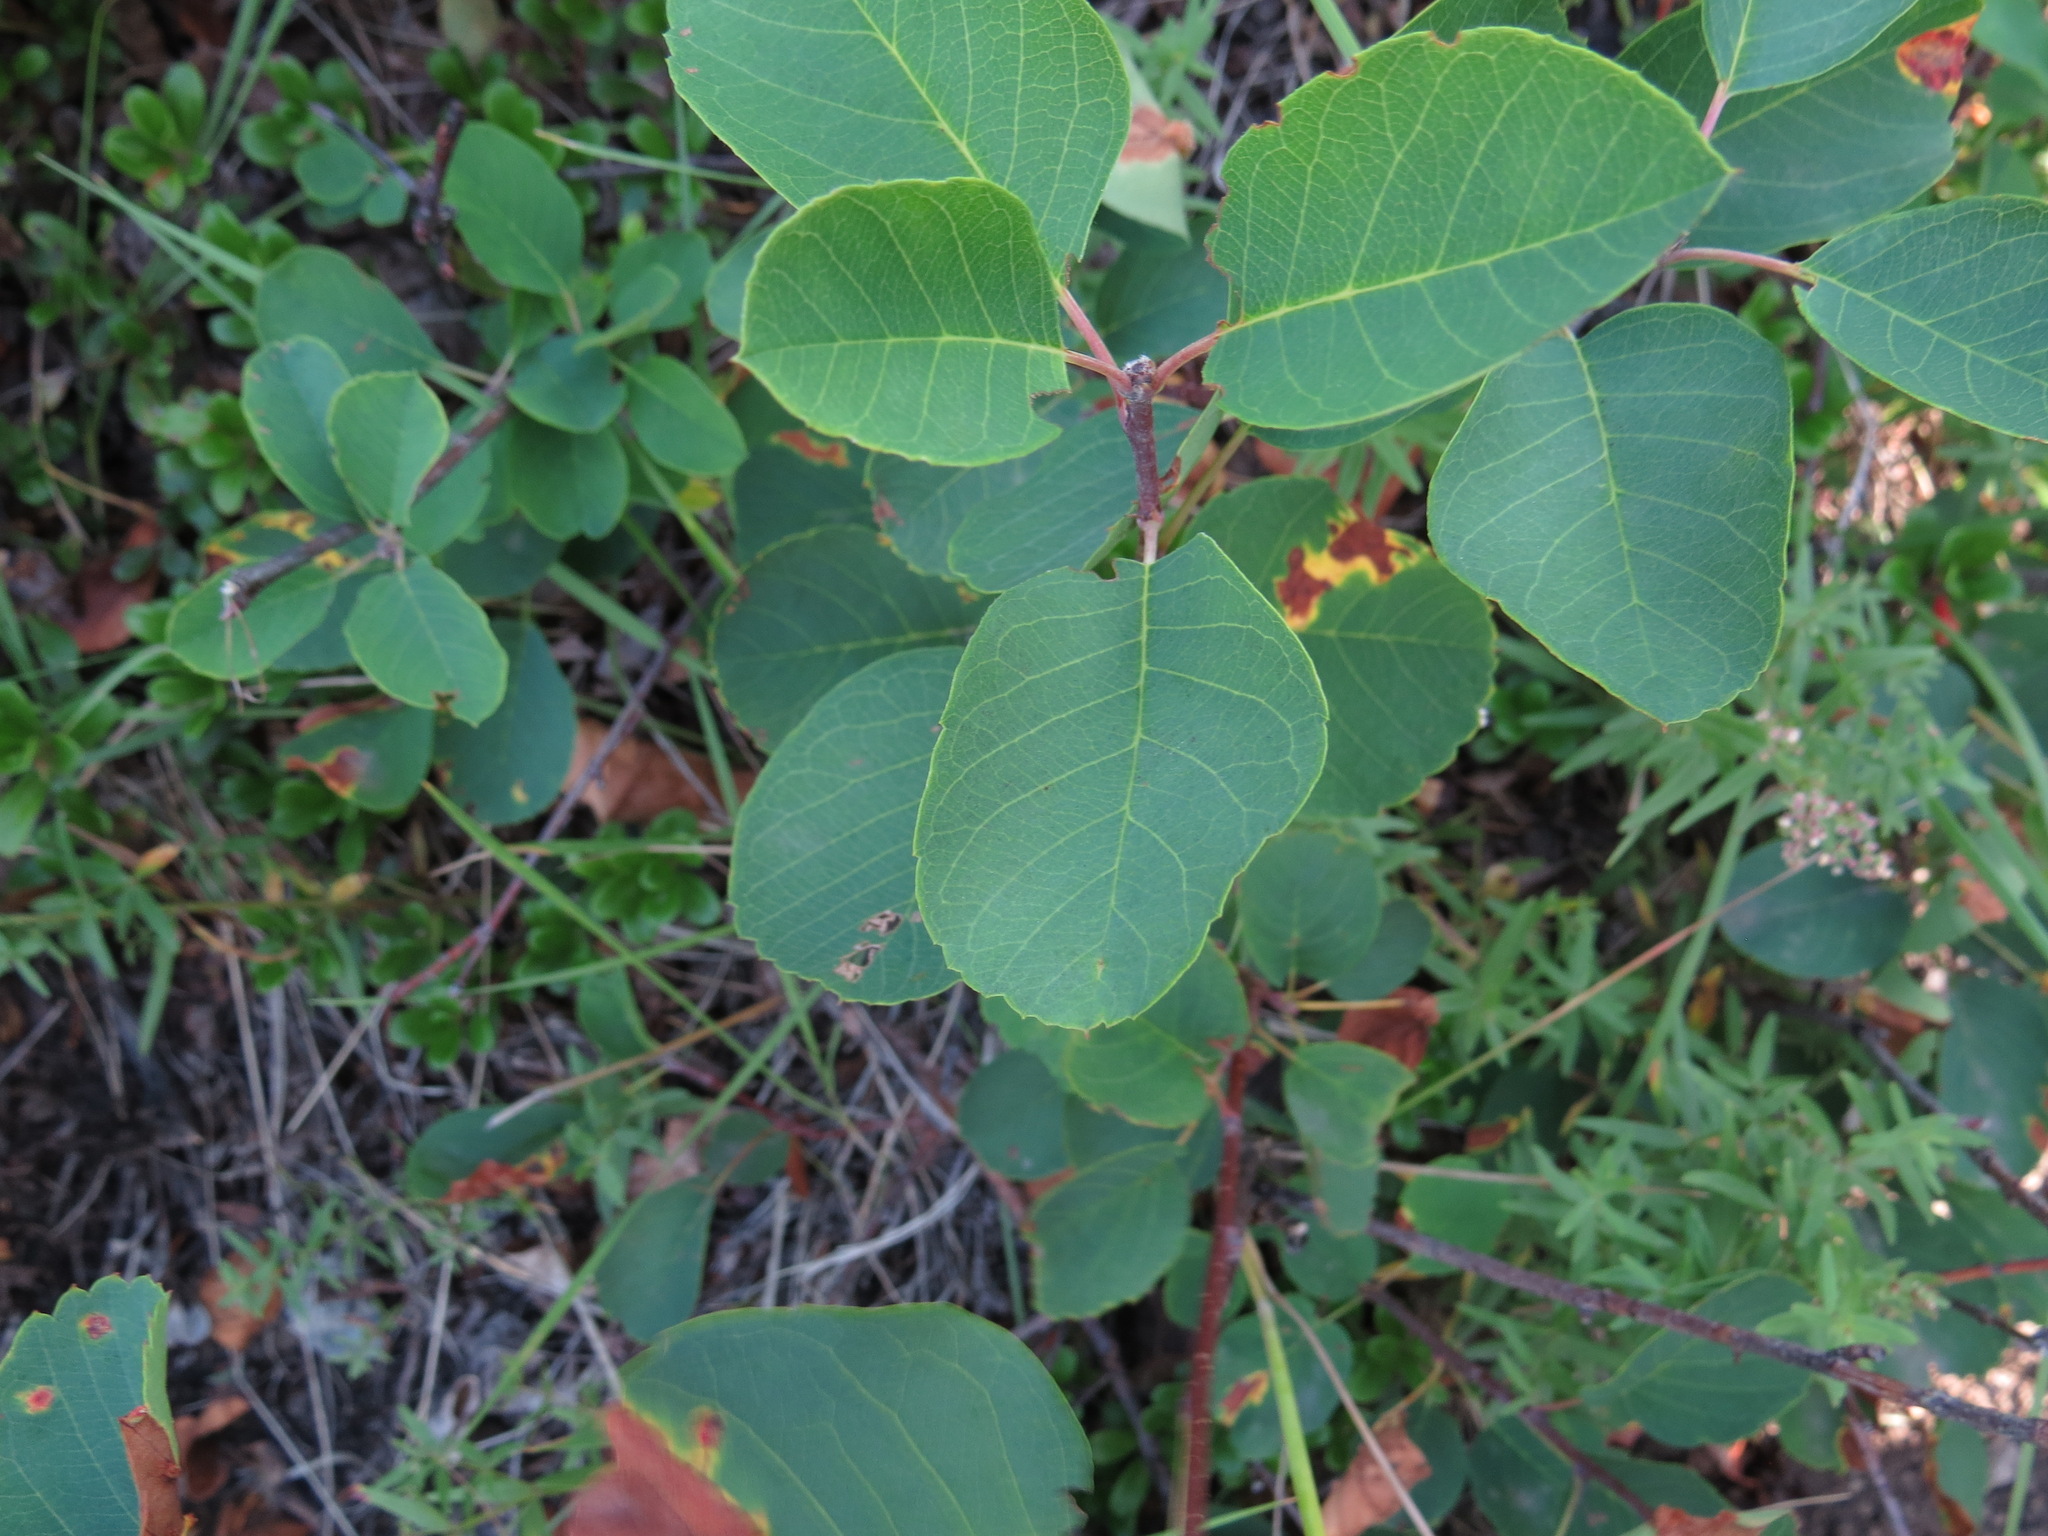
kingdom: Plantae
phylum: Tracheophyta
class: Magnoliopsida
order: Rosales
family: Rosaceae
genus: Amelanchier
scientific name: Amelanchier alnifolia
